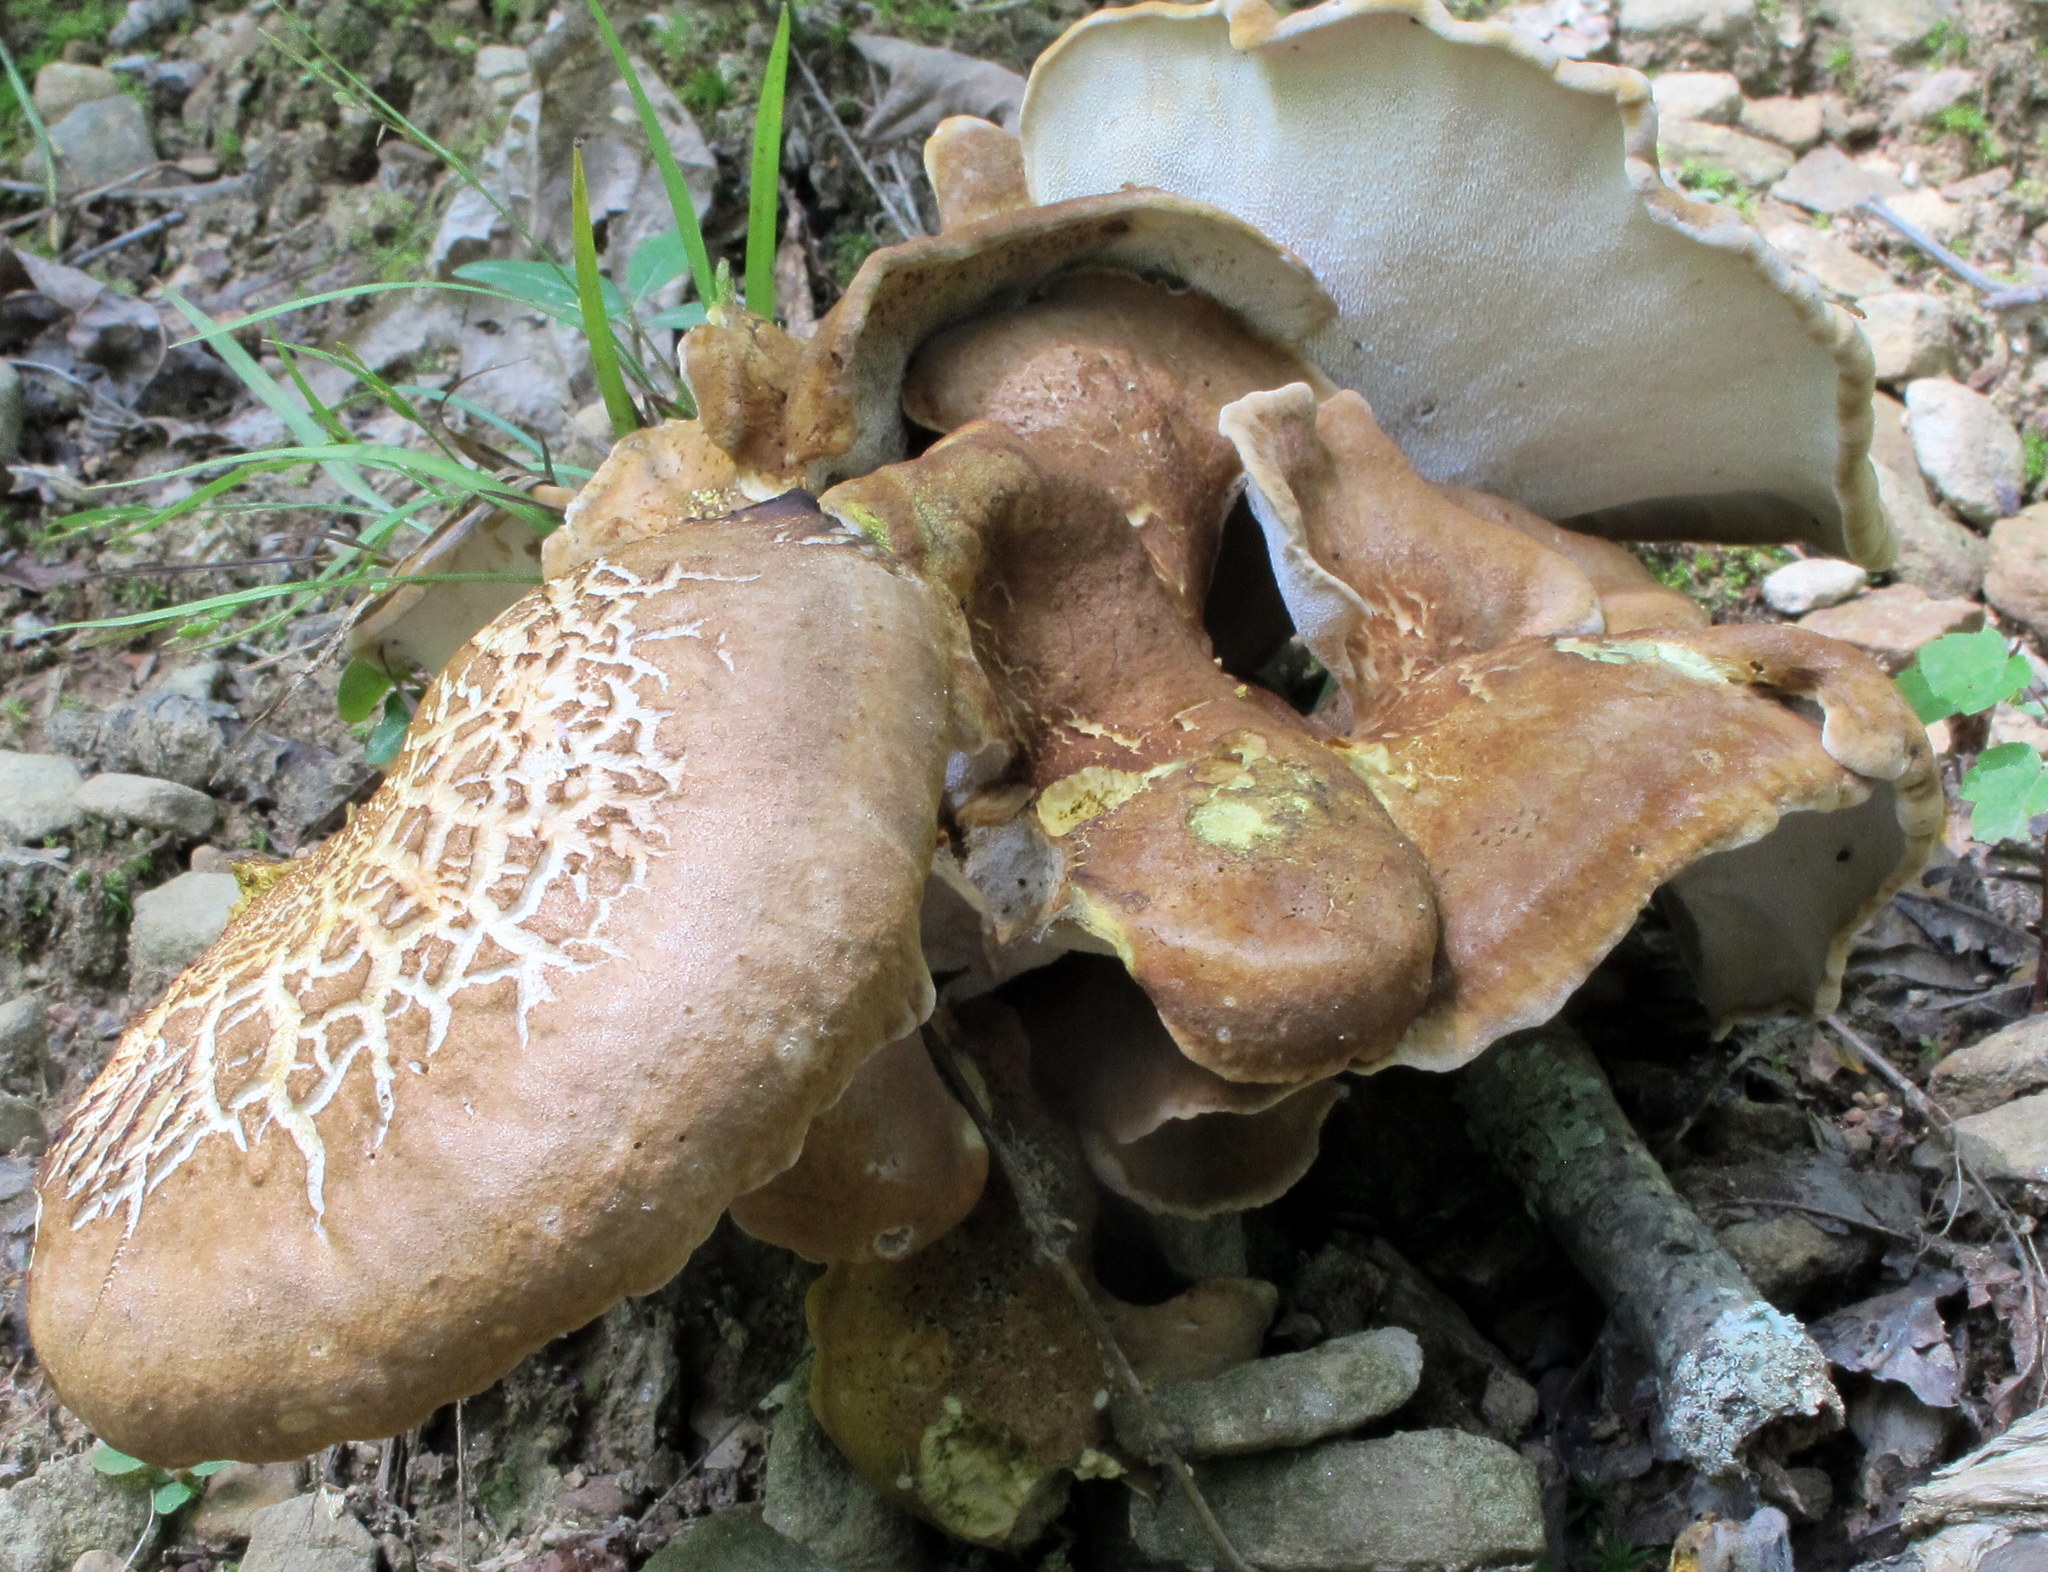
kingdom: Fungi
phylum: Basidiomycota
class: Agaricomycetes
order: Russulales
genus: Laeticutis
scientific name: Laeticutis cristata
